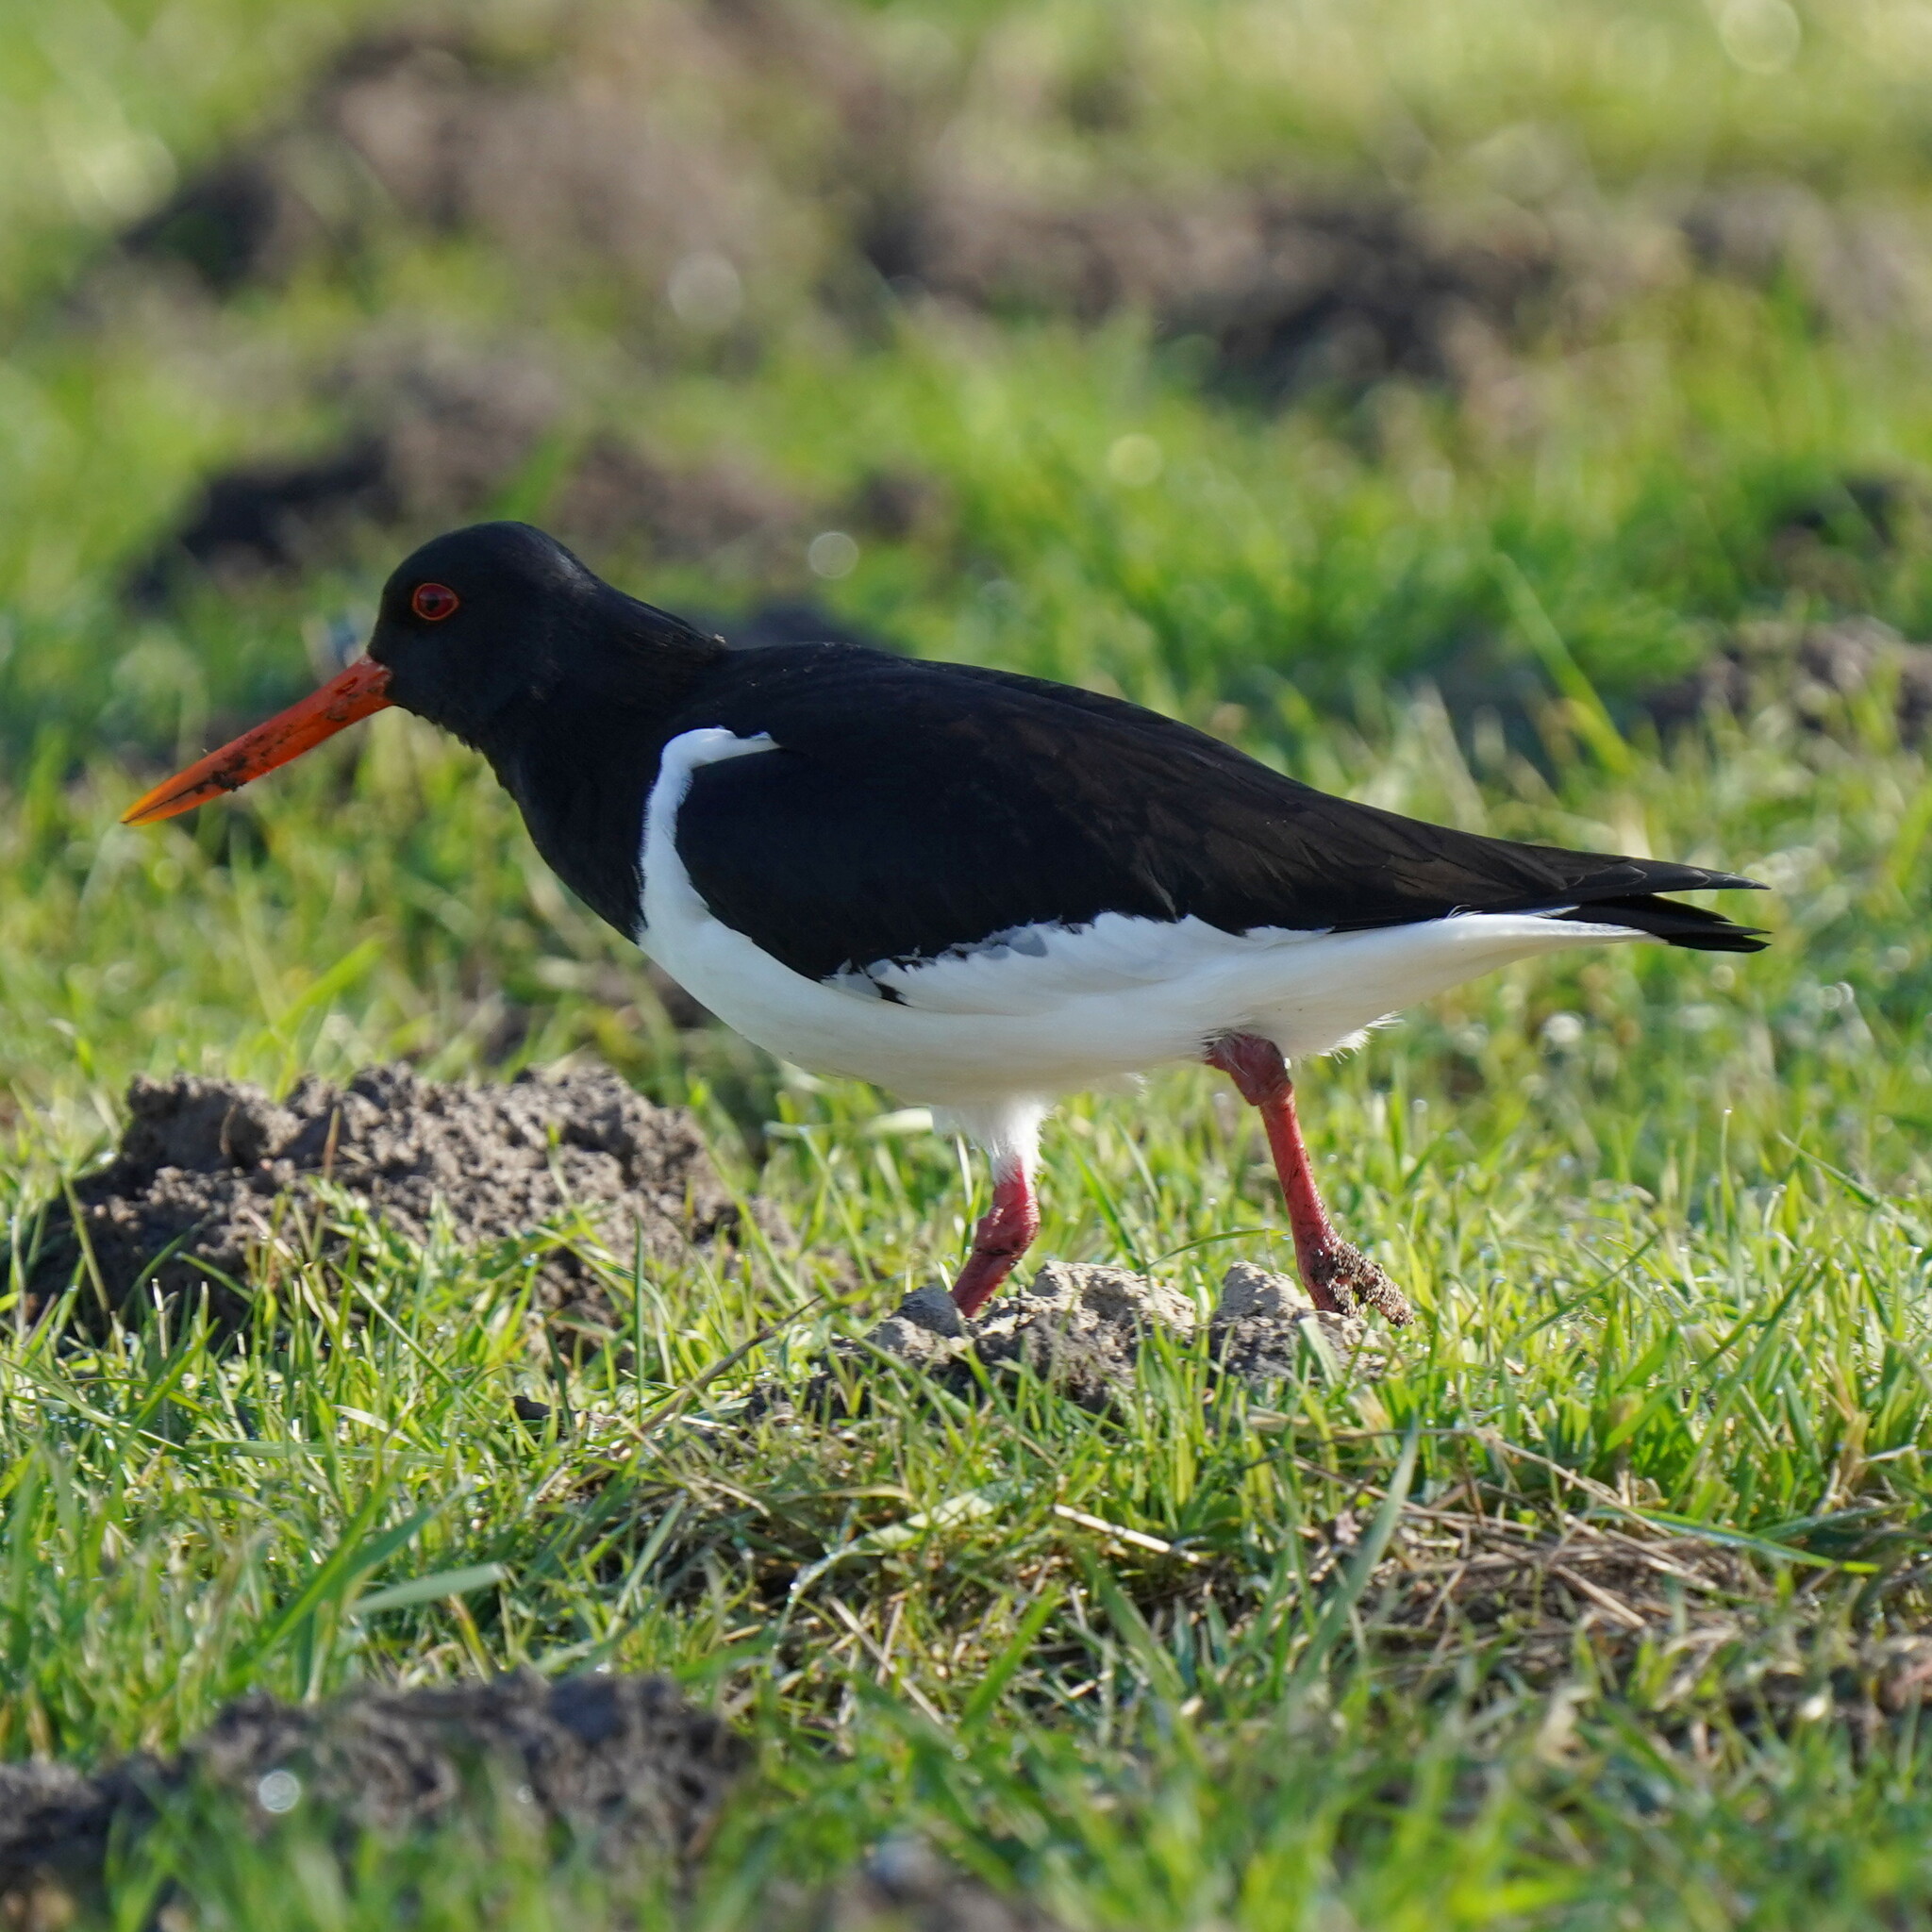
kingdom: Animalia
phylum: Chordata
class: Aves
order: Charadriiformes
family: Haematopodidae
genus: Haematopus
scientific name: Haematopus ostralegus
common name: Eurasian oystercatcher
